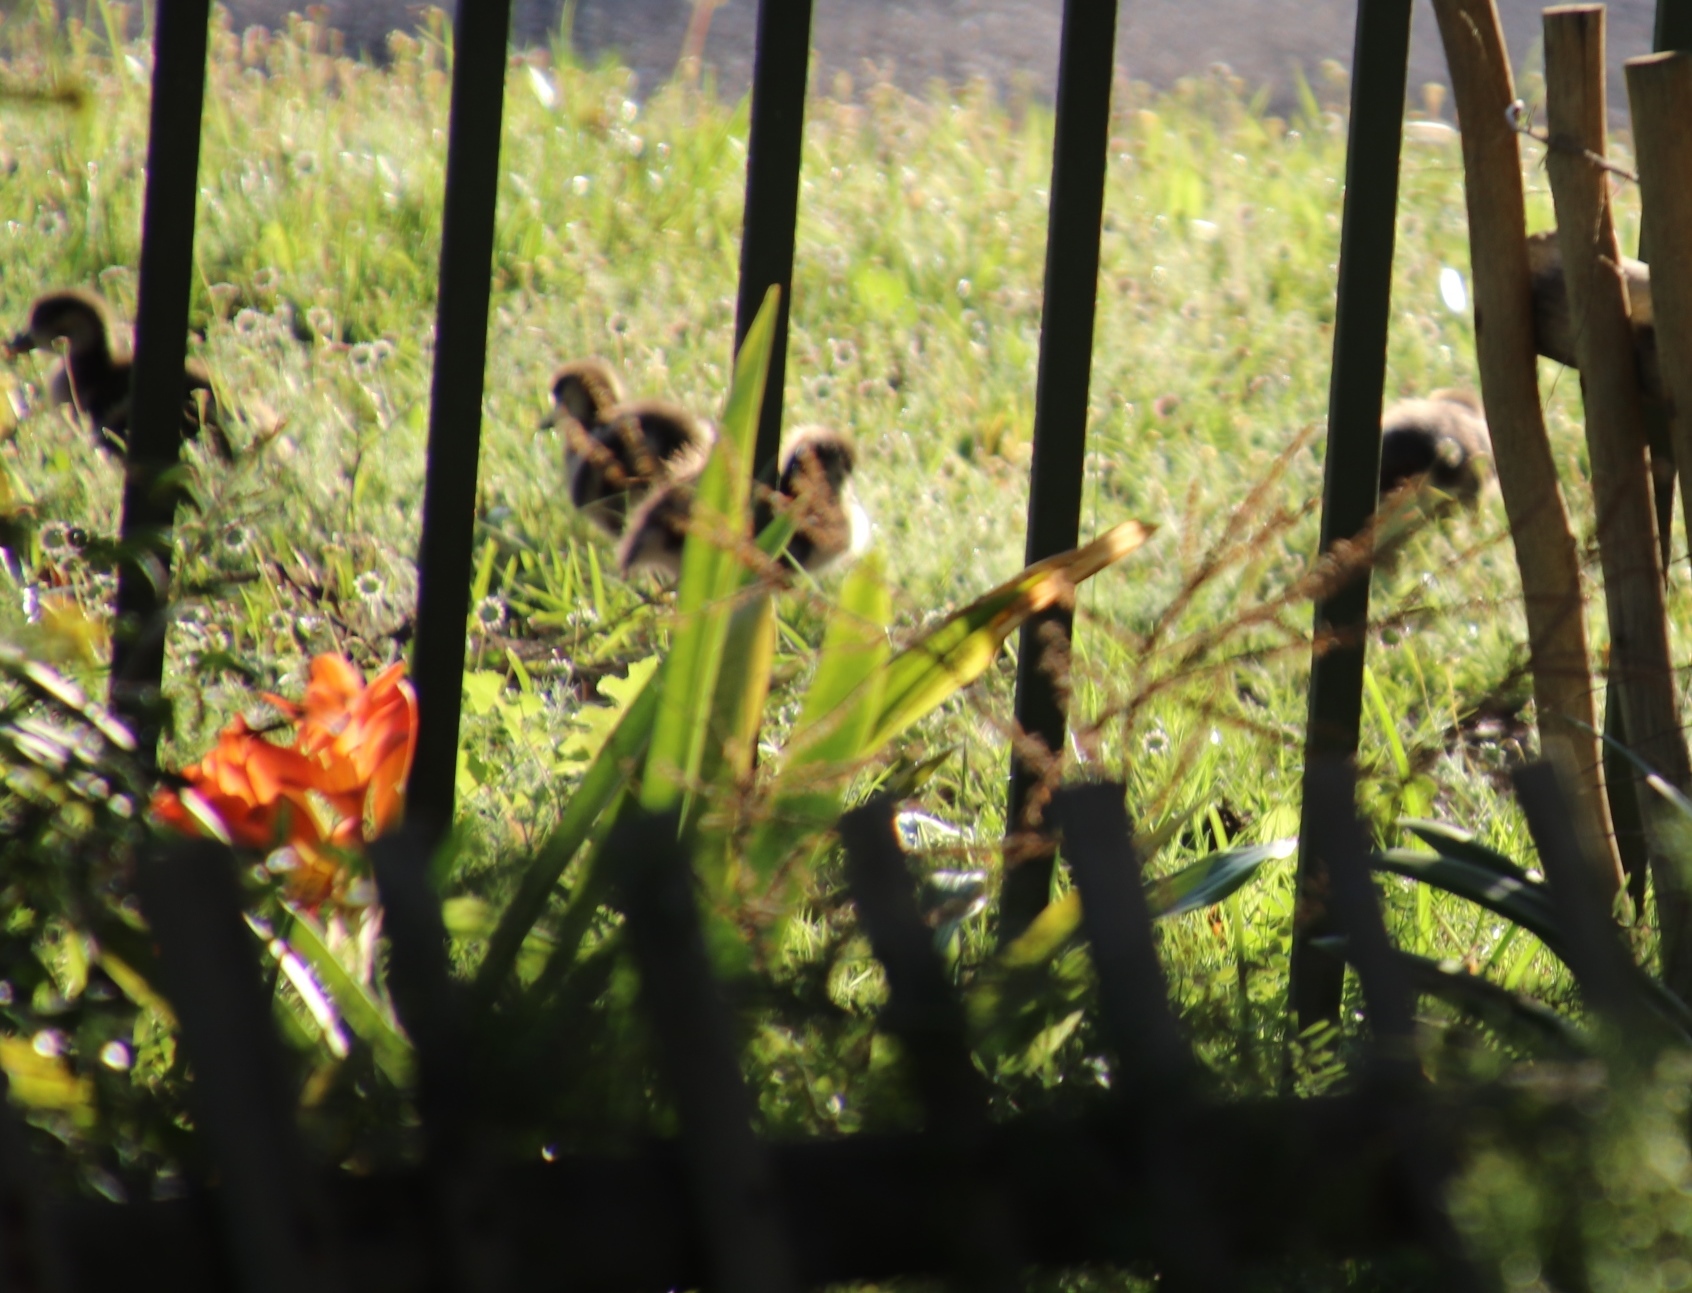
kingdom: Animalia
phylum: Chordata
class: Aves
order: Anseriformes
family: Anatidae
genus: Alopochen
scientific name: Alopochen aegyptiaca
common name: Egyptian goose
